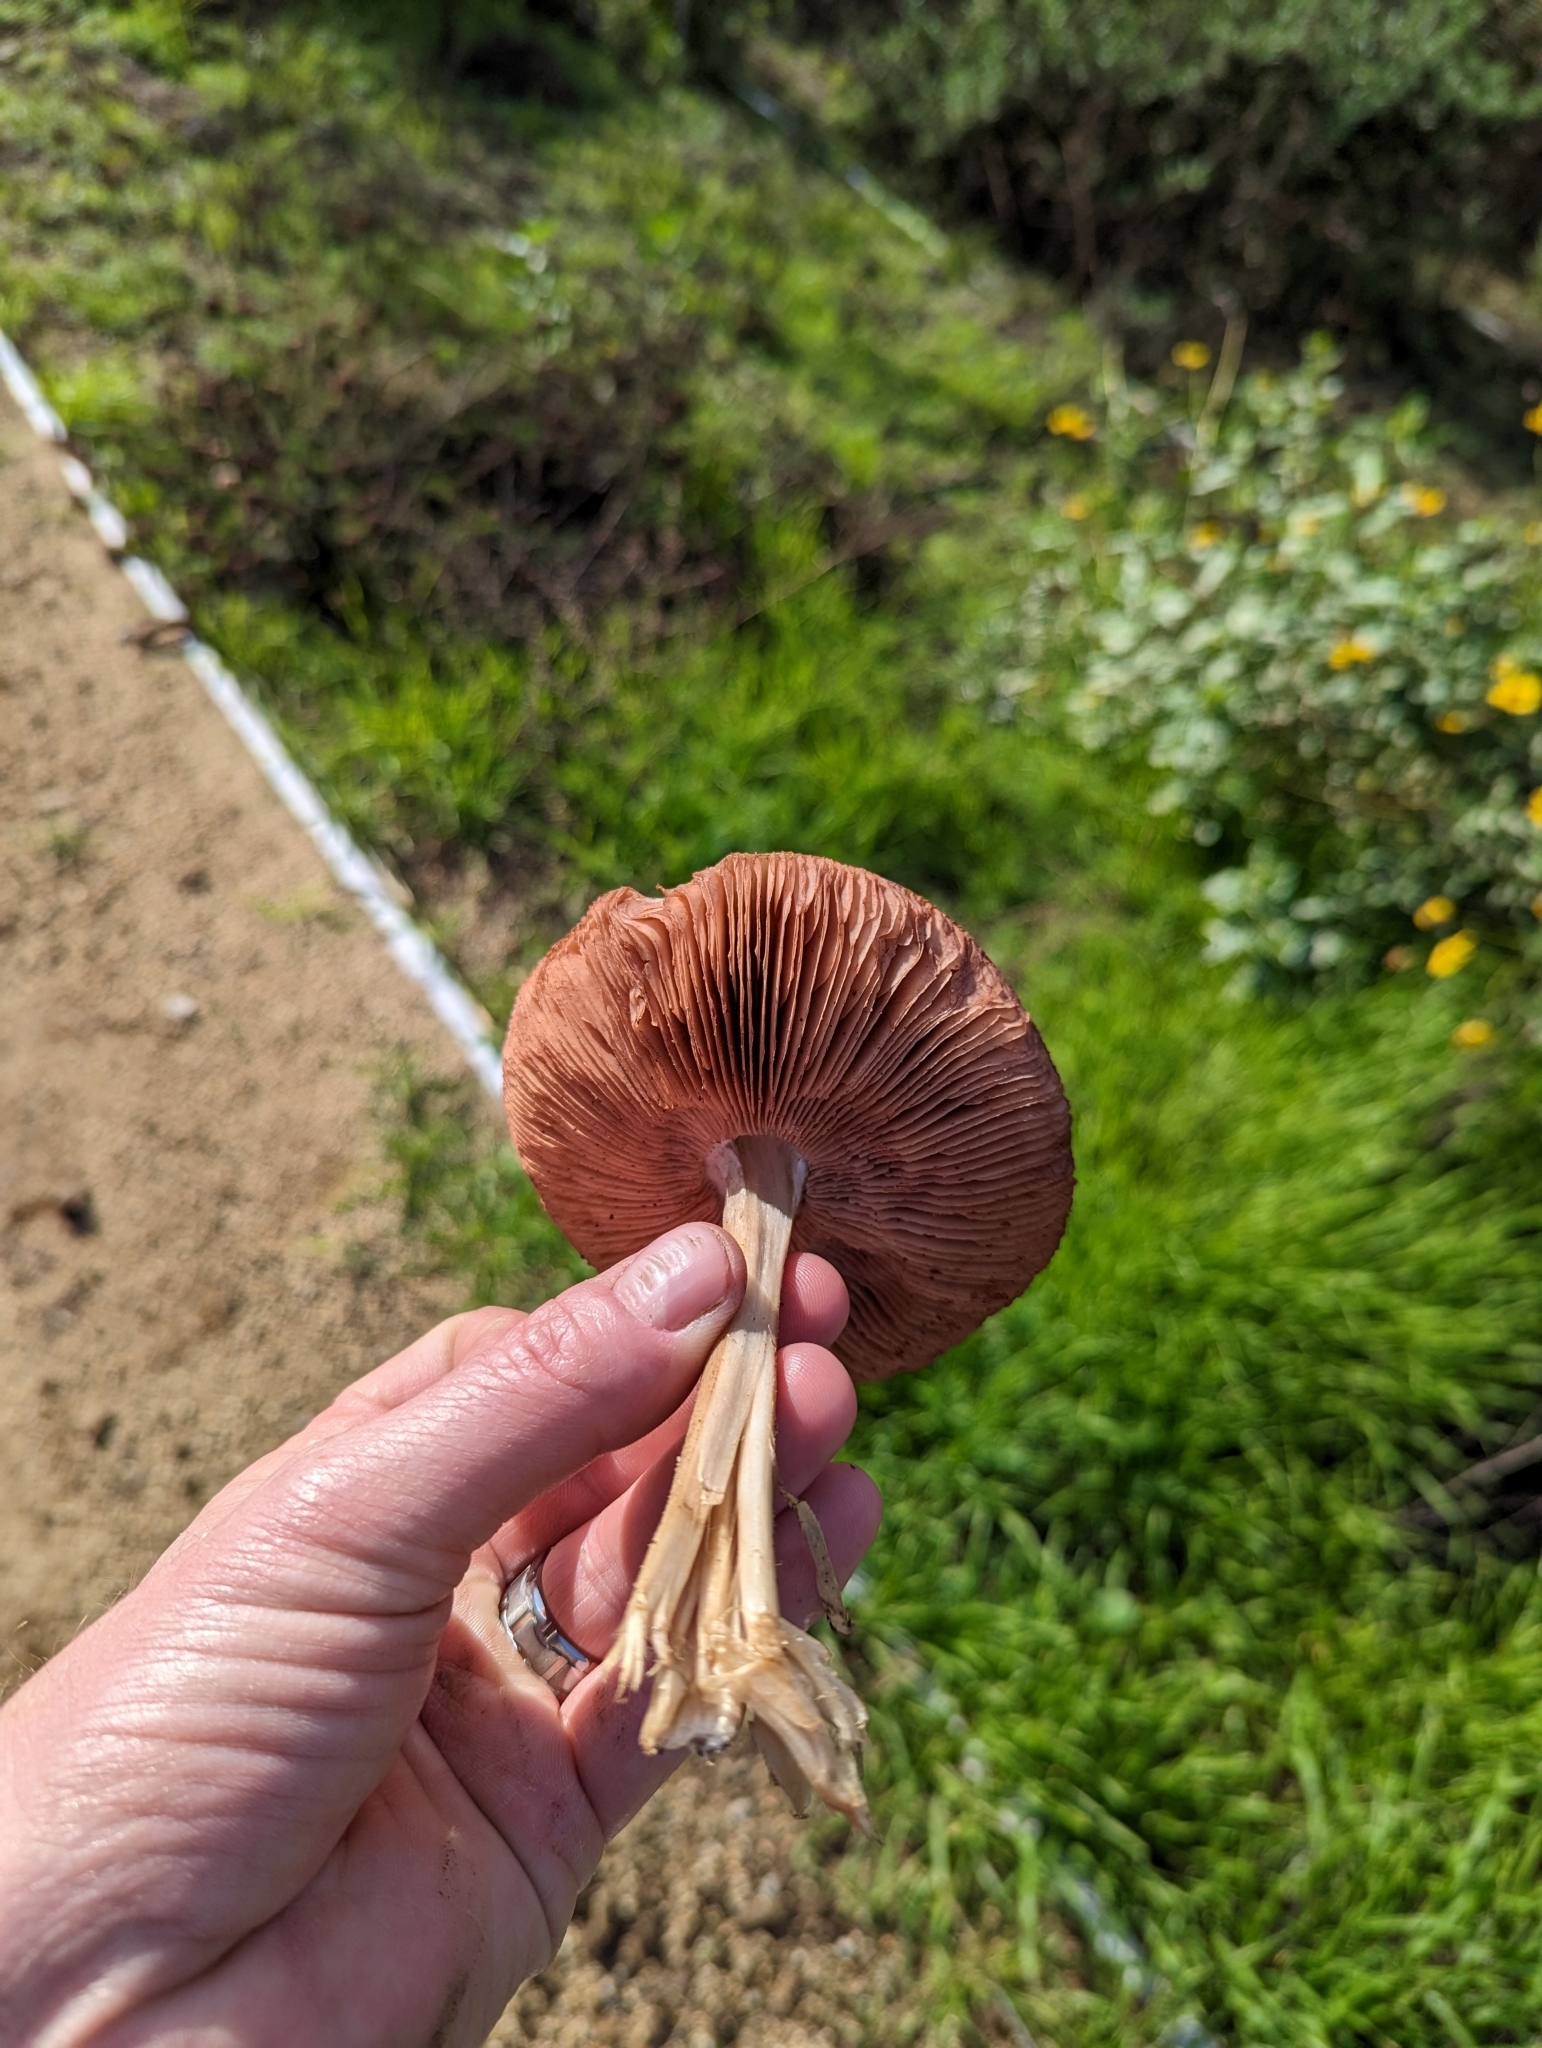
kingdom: Fungi
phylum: Basidiomycota
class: Agaricomycetes
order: Agaricales
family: Pluteaceae
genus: Volvopluteus
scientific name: Volvopluteus gloiocephalus
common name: Stubble rosegill
